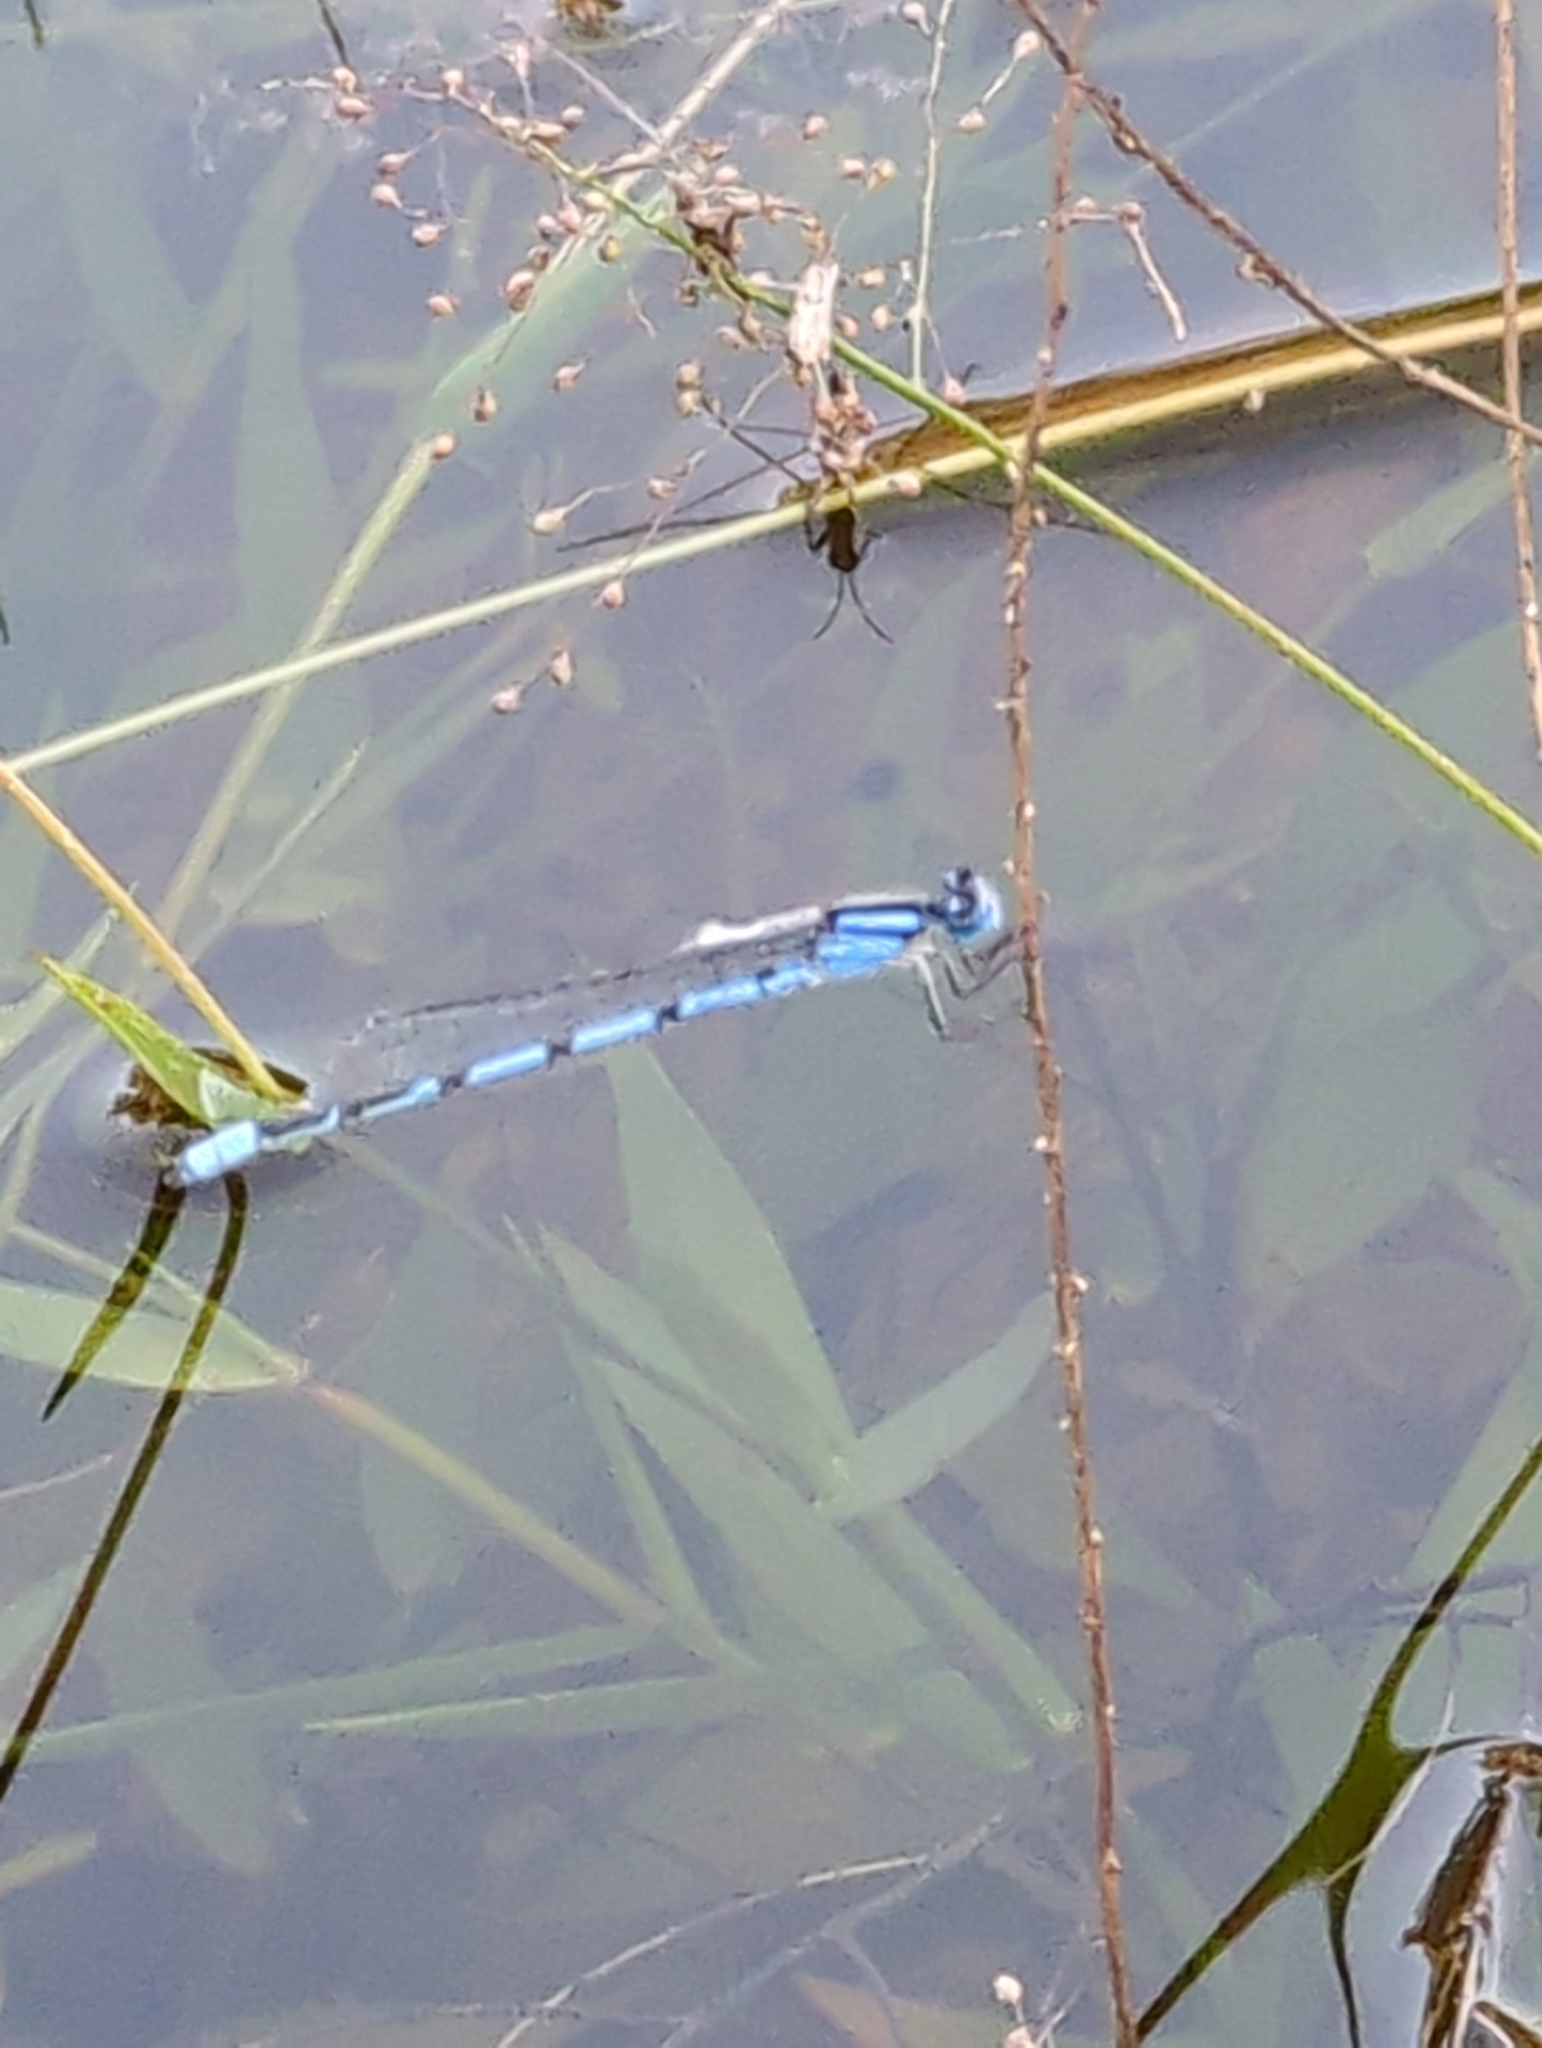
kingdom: Animalia
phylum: Arthropoda
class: Insecta
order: Odonata
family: Coenagrionidae
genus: Enallagma
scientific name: Enallagma civile
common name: Damselfly
